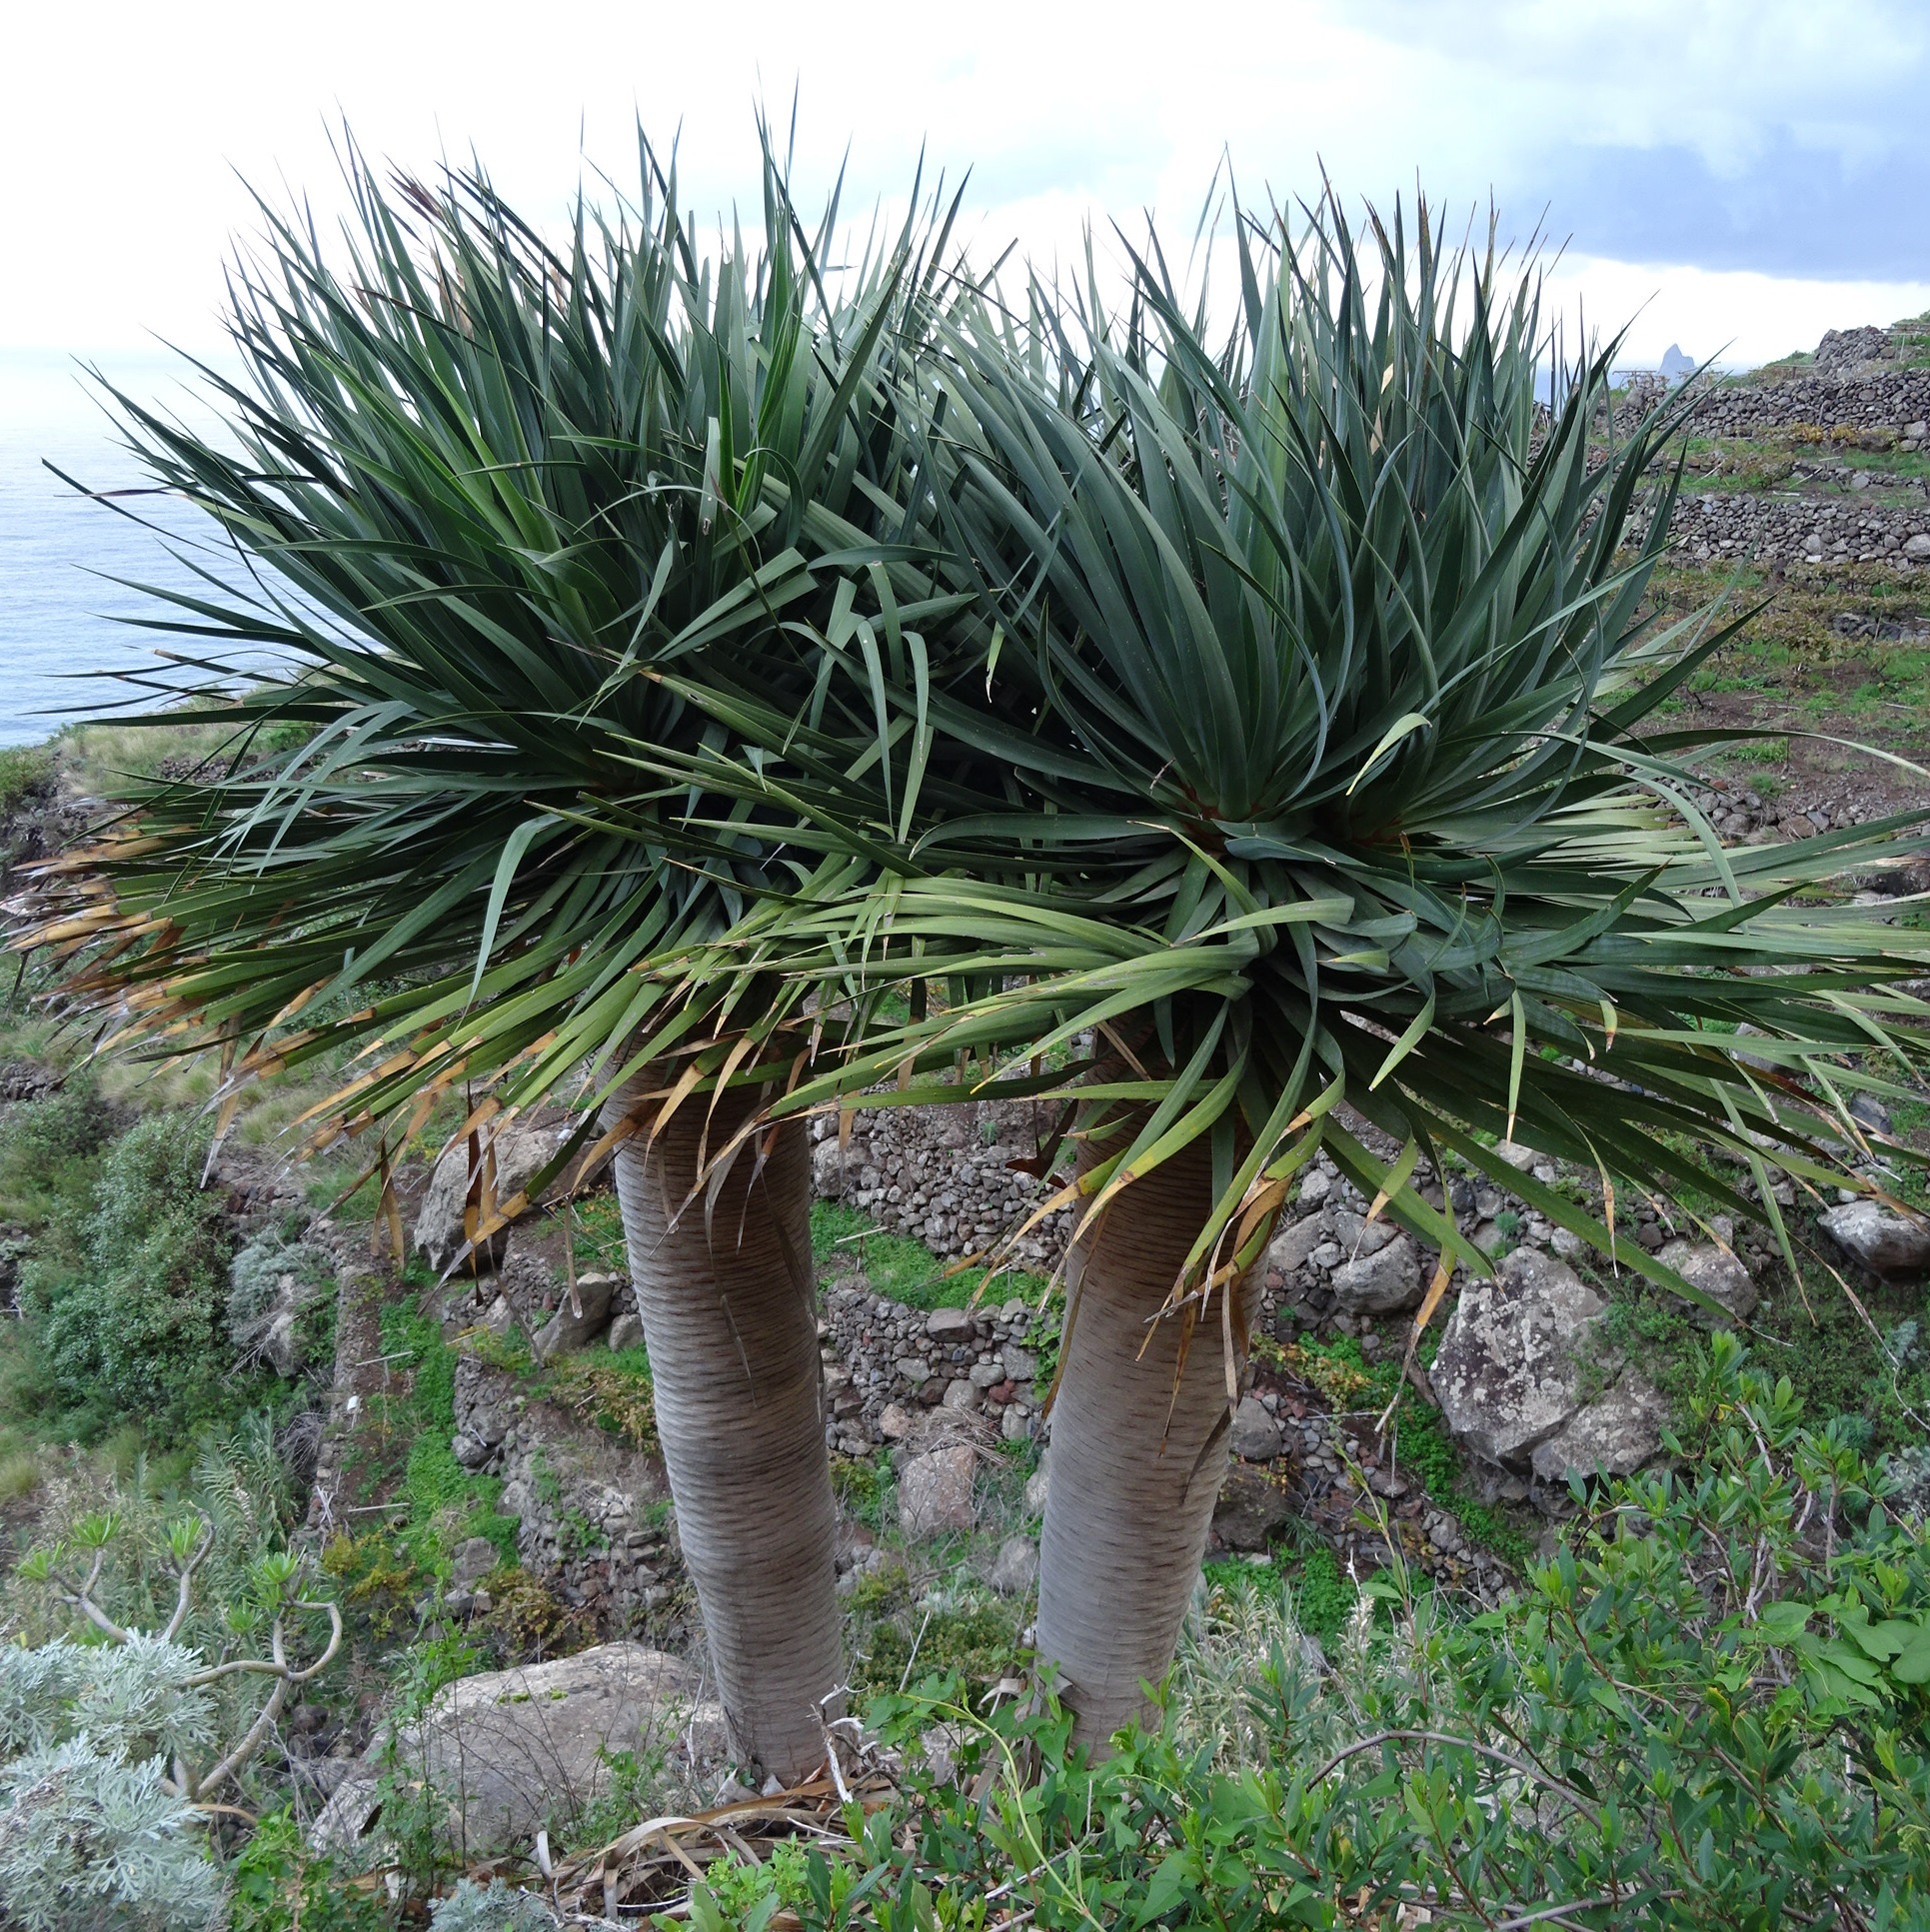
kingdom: Plantae
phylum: Tracheophyta
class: Liliopsida
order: Asparagales
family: Asparagaceae
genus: Dracaena
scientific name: Dracaena draco
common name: Canary island dragon tree
